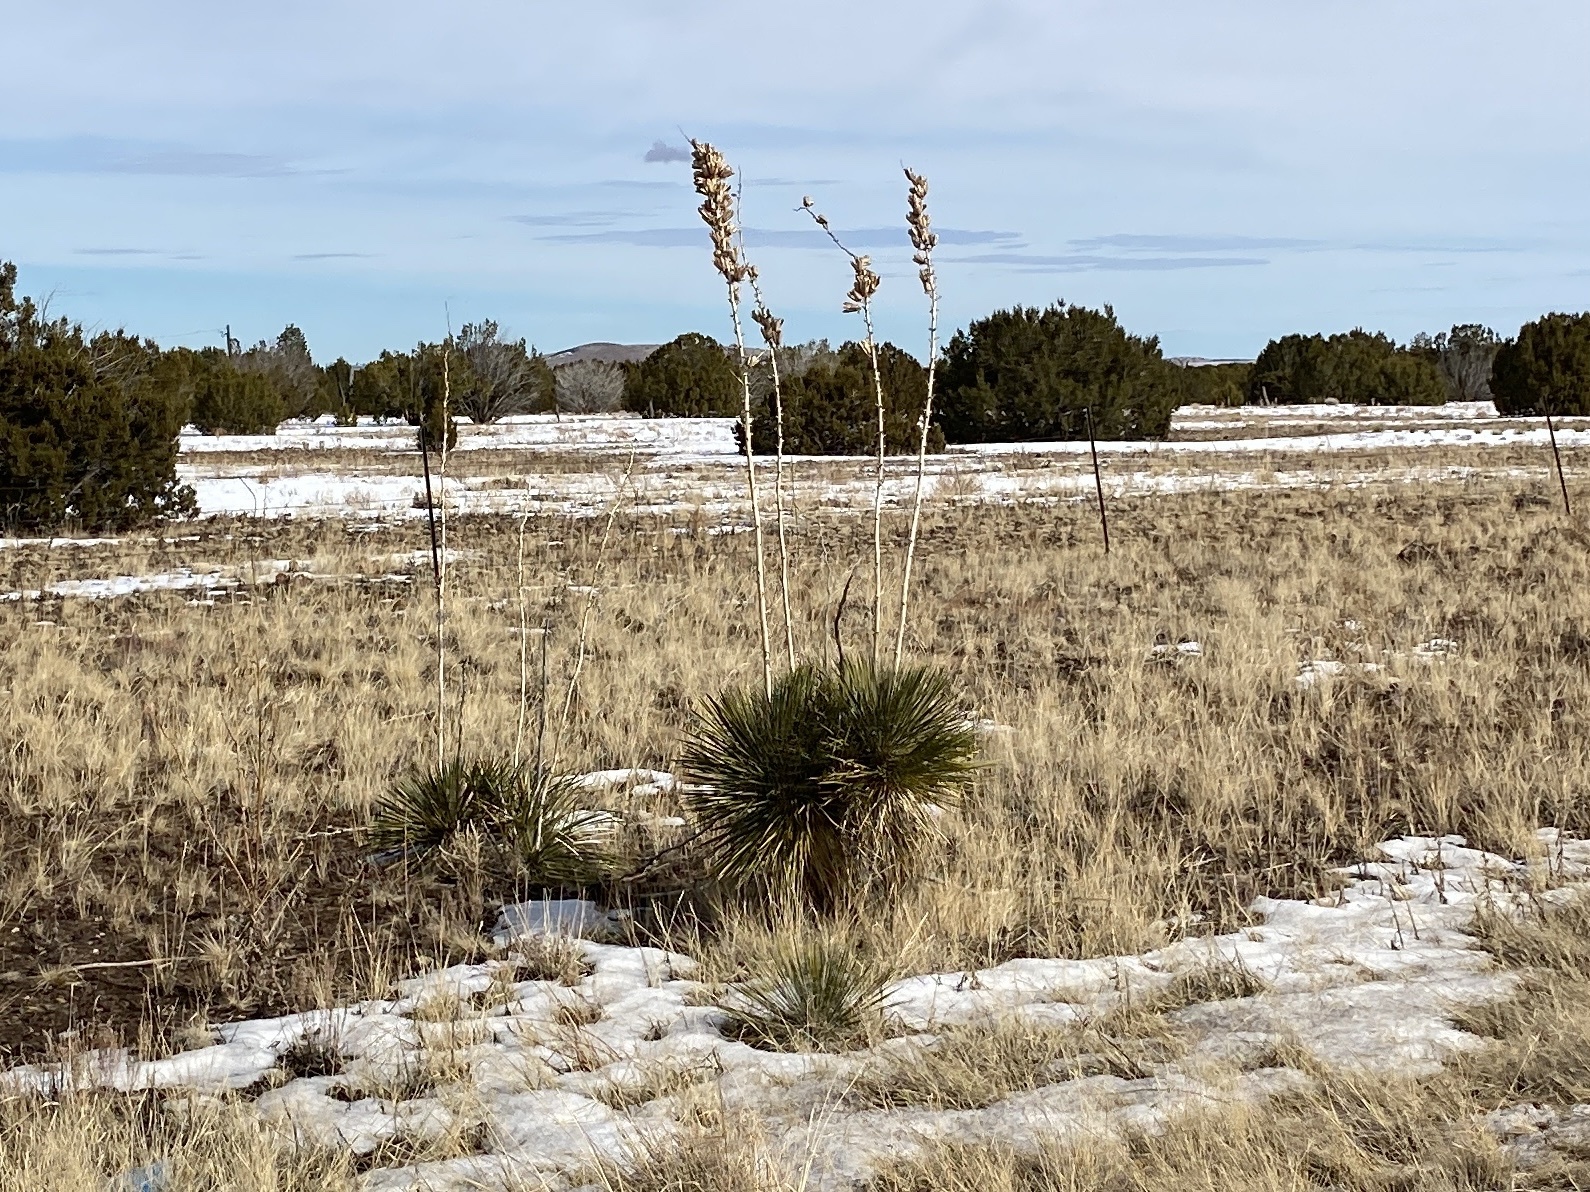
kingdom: Plantae
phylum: Tracheophyta
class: Liliopsida
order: Asparagales
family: Asparagaceae
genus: Yucca
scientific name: Yucca elata
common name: Palmella
